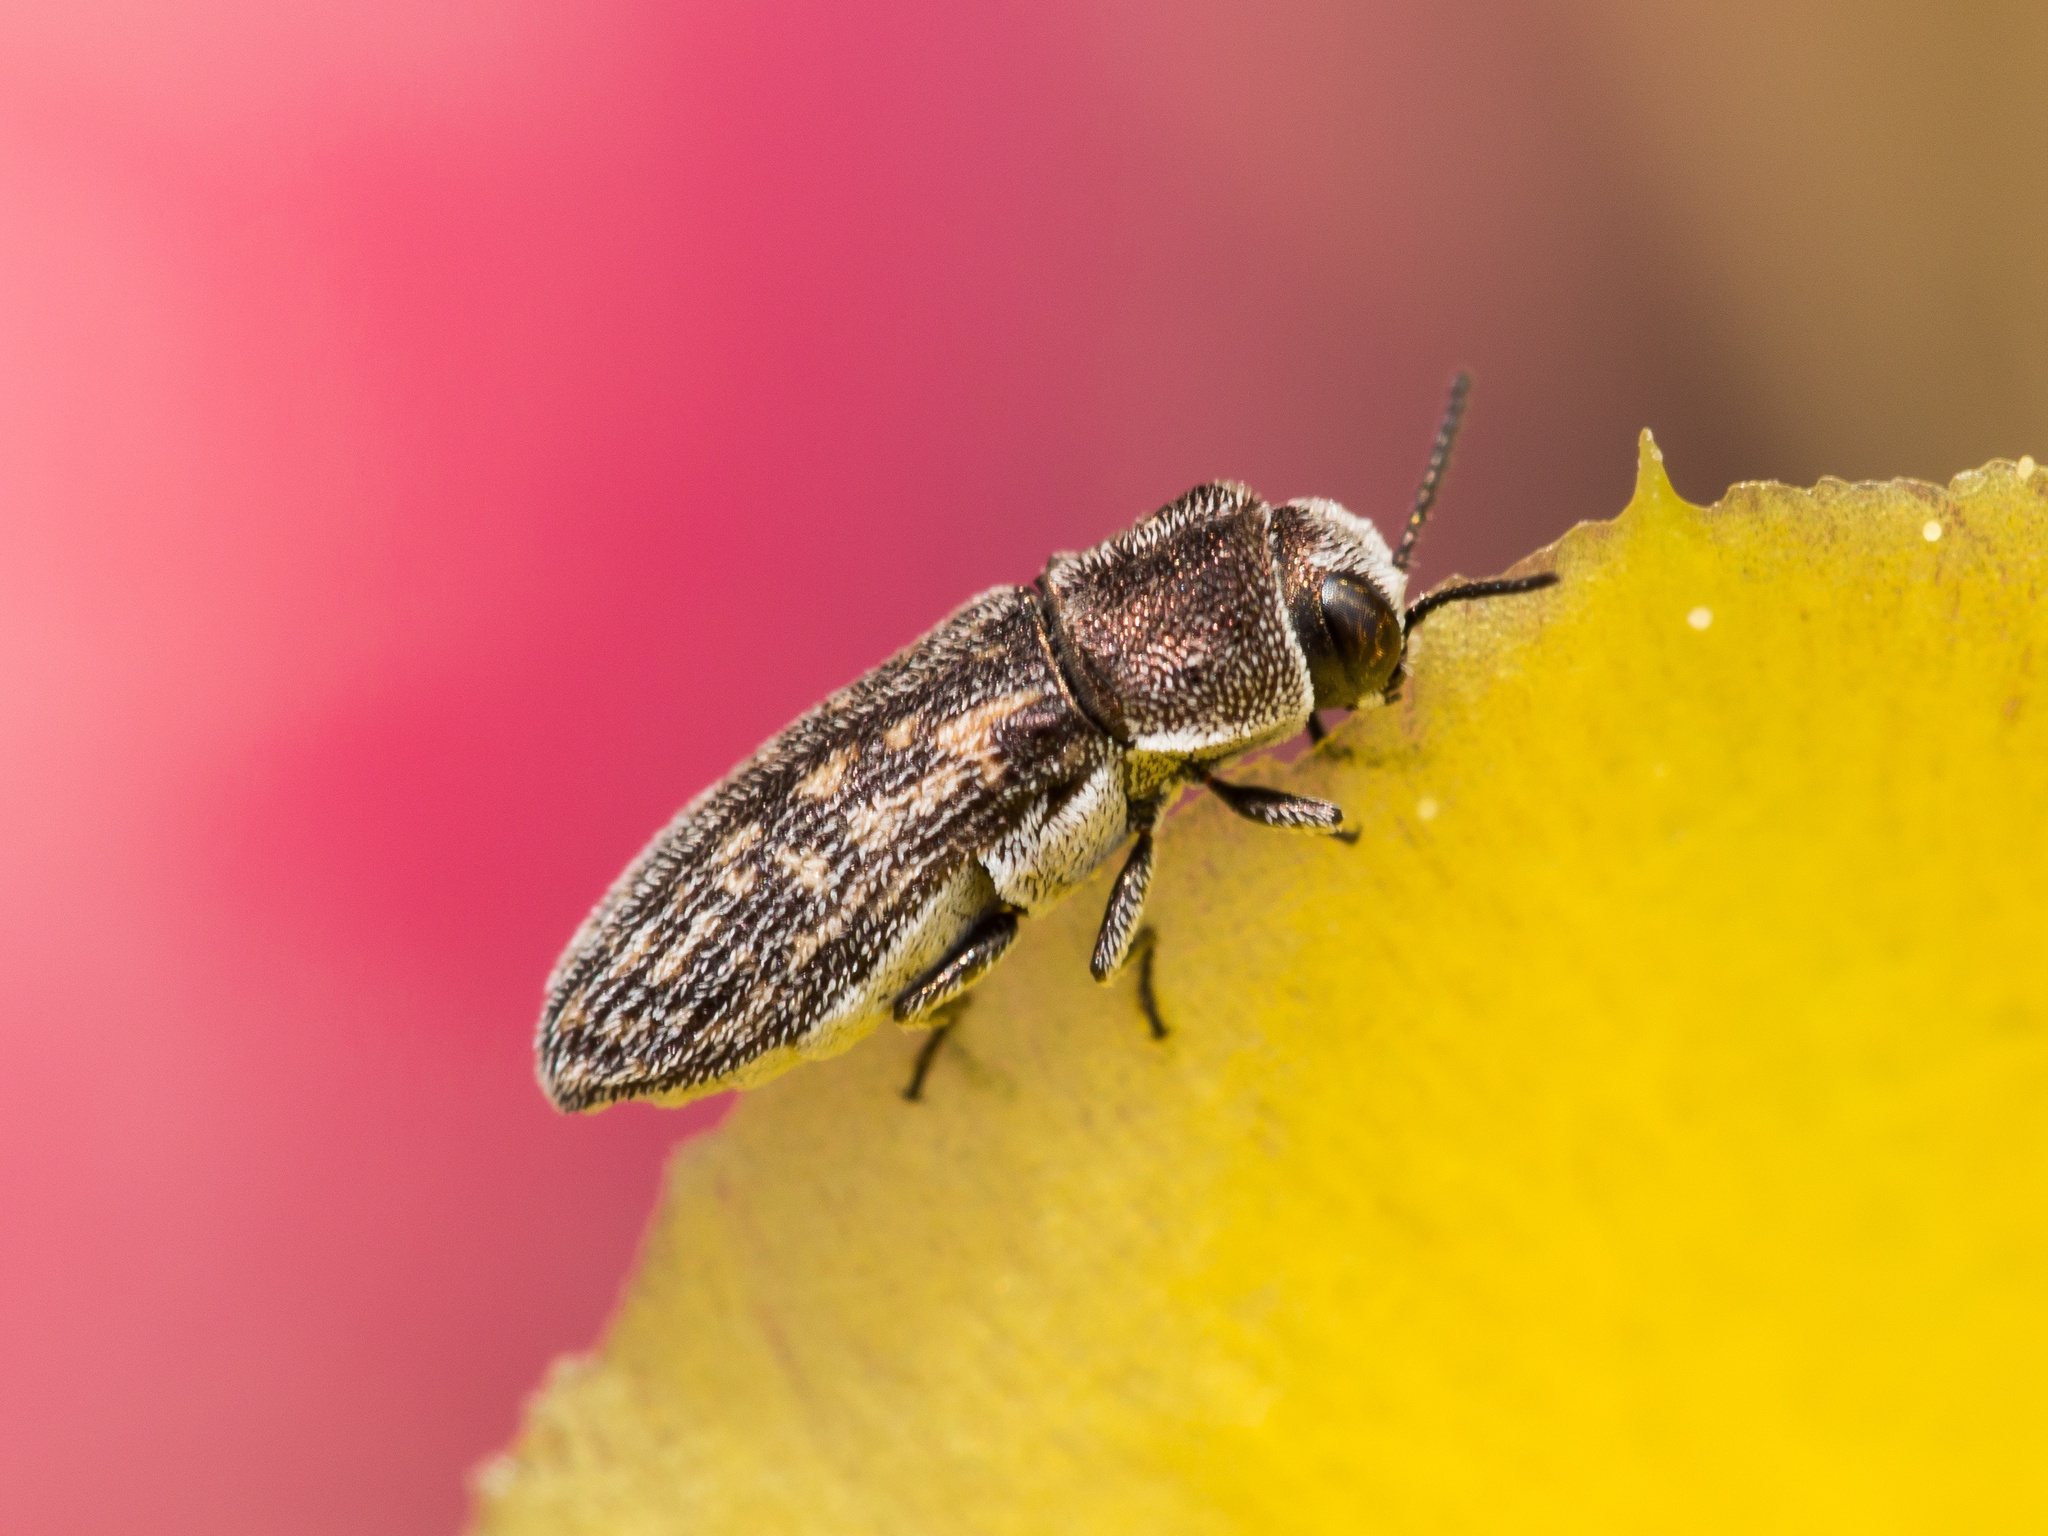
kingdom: Animalia
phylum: Arthropoda
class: Insecta
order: Coleoptera
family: Buprestidae
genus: Acmaeoderella
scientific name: Acmaeoderella adspersula
